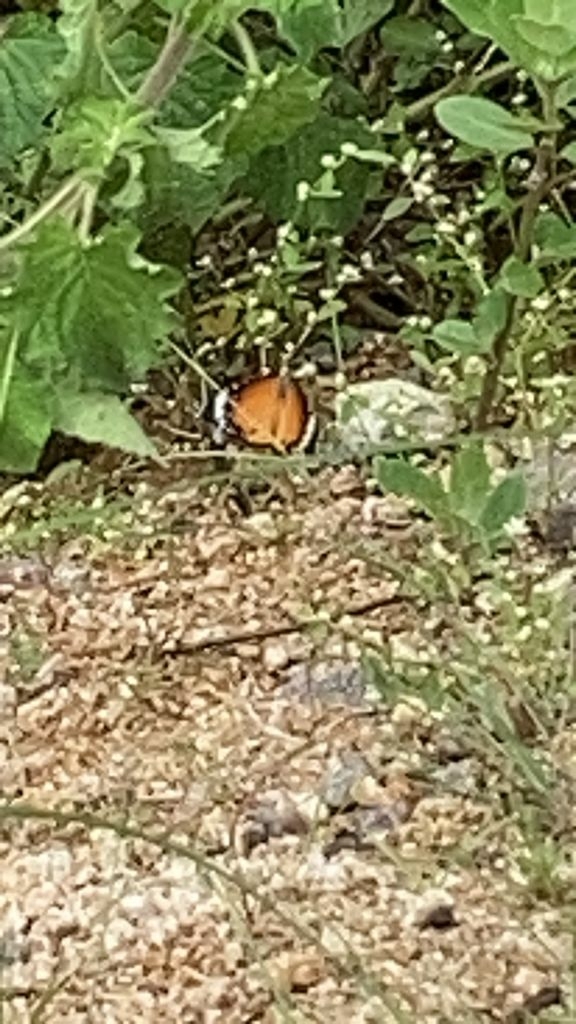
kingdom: Animalia
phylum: Arthropoda
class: Insecta
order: Lepidoptera
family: Nymphalidae
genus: Danaus
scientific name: Danaus chrysippus
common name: Plain tiger
